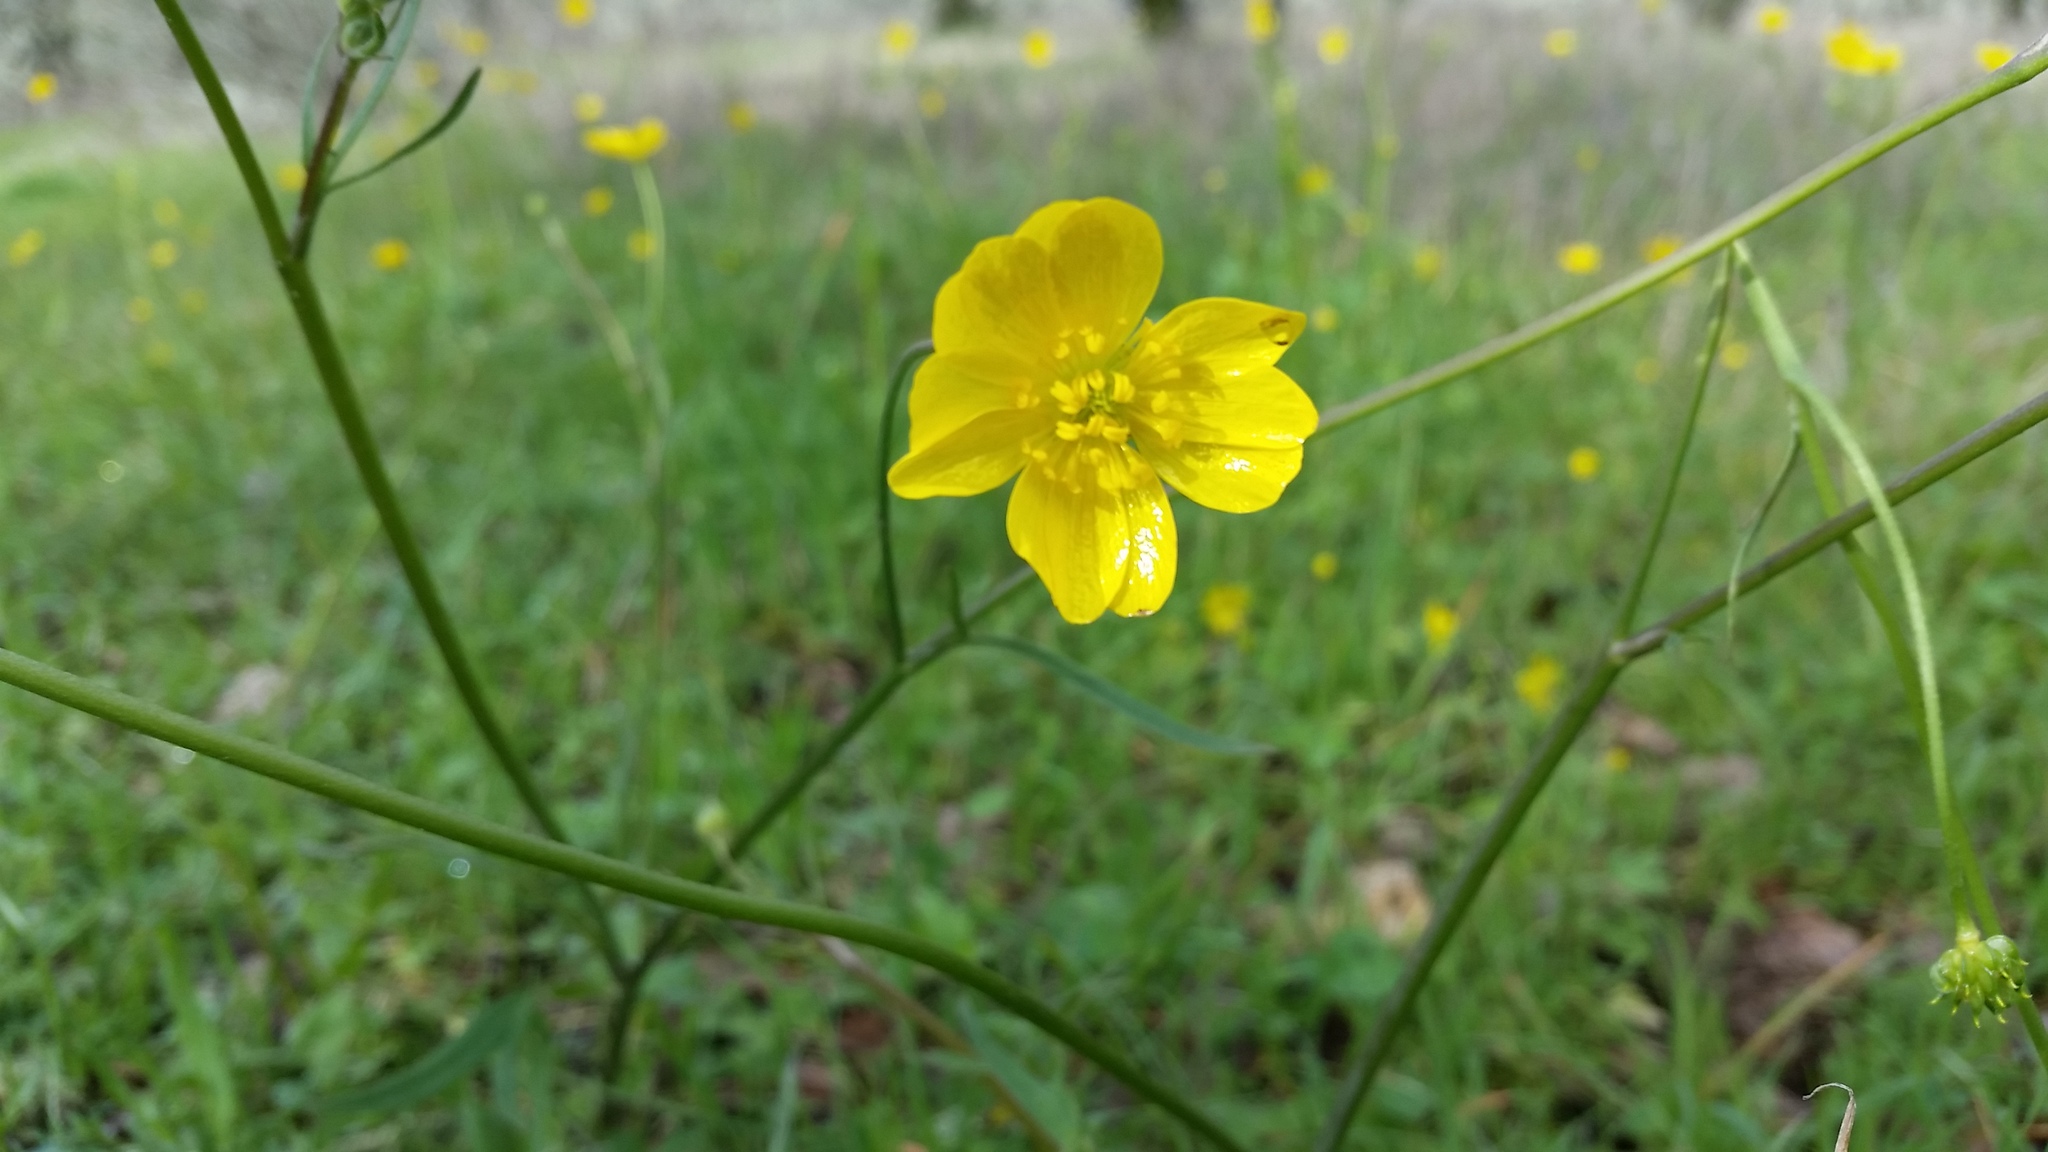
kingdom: Plantae
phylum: Tracheophyta
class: Magnoliopsida
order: Ranunculales
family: Ranunculaceae
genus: Ranunculus
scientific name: Ranunculus californicus
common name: California buttercup
